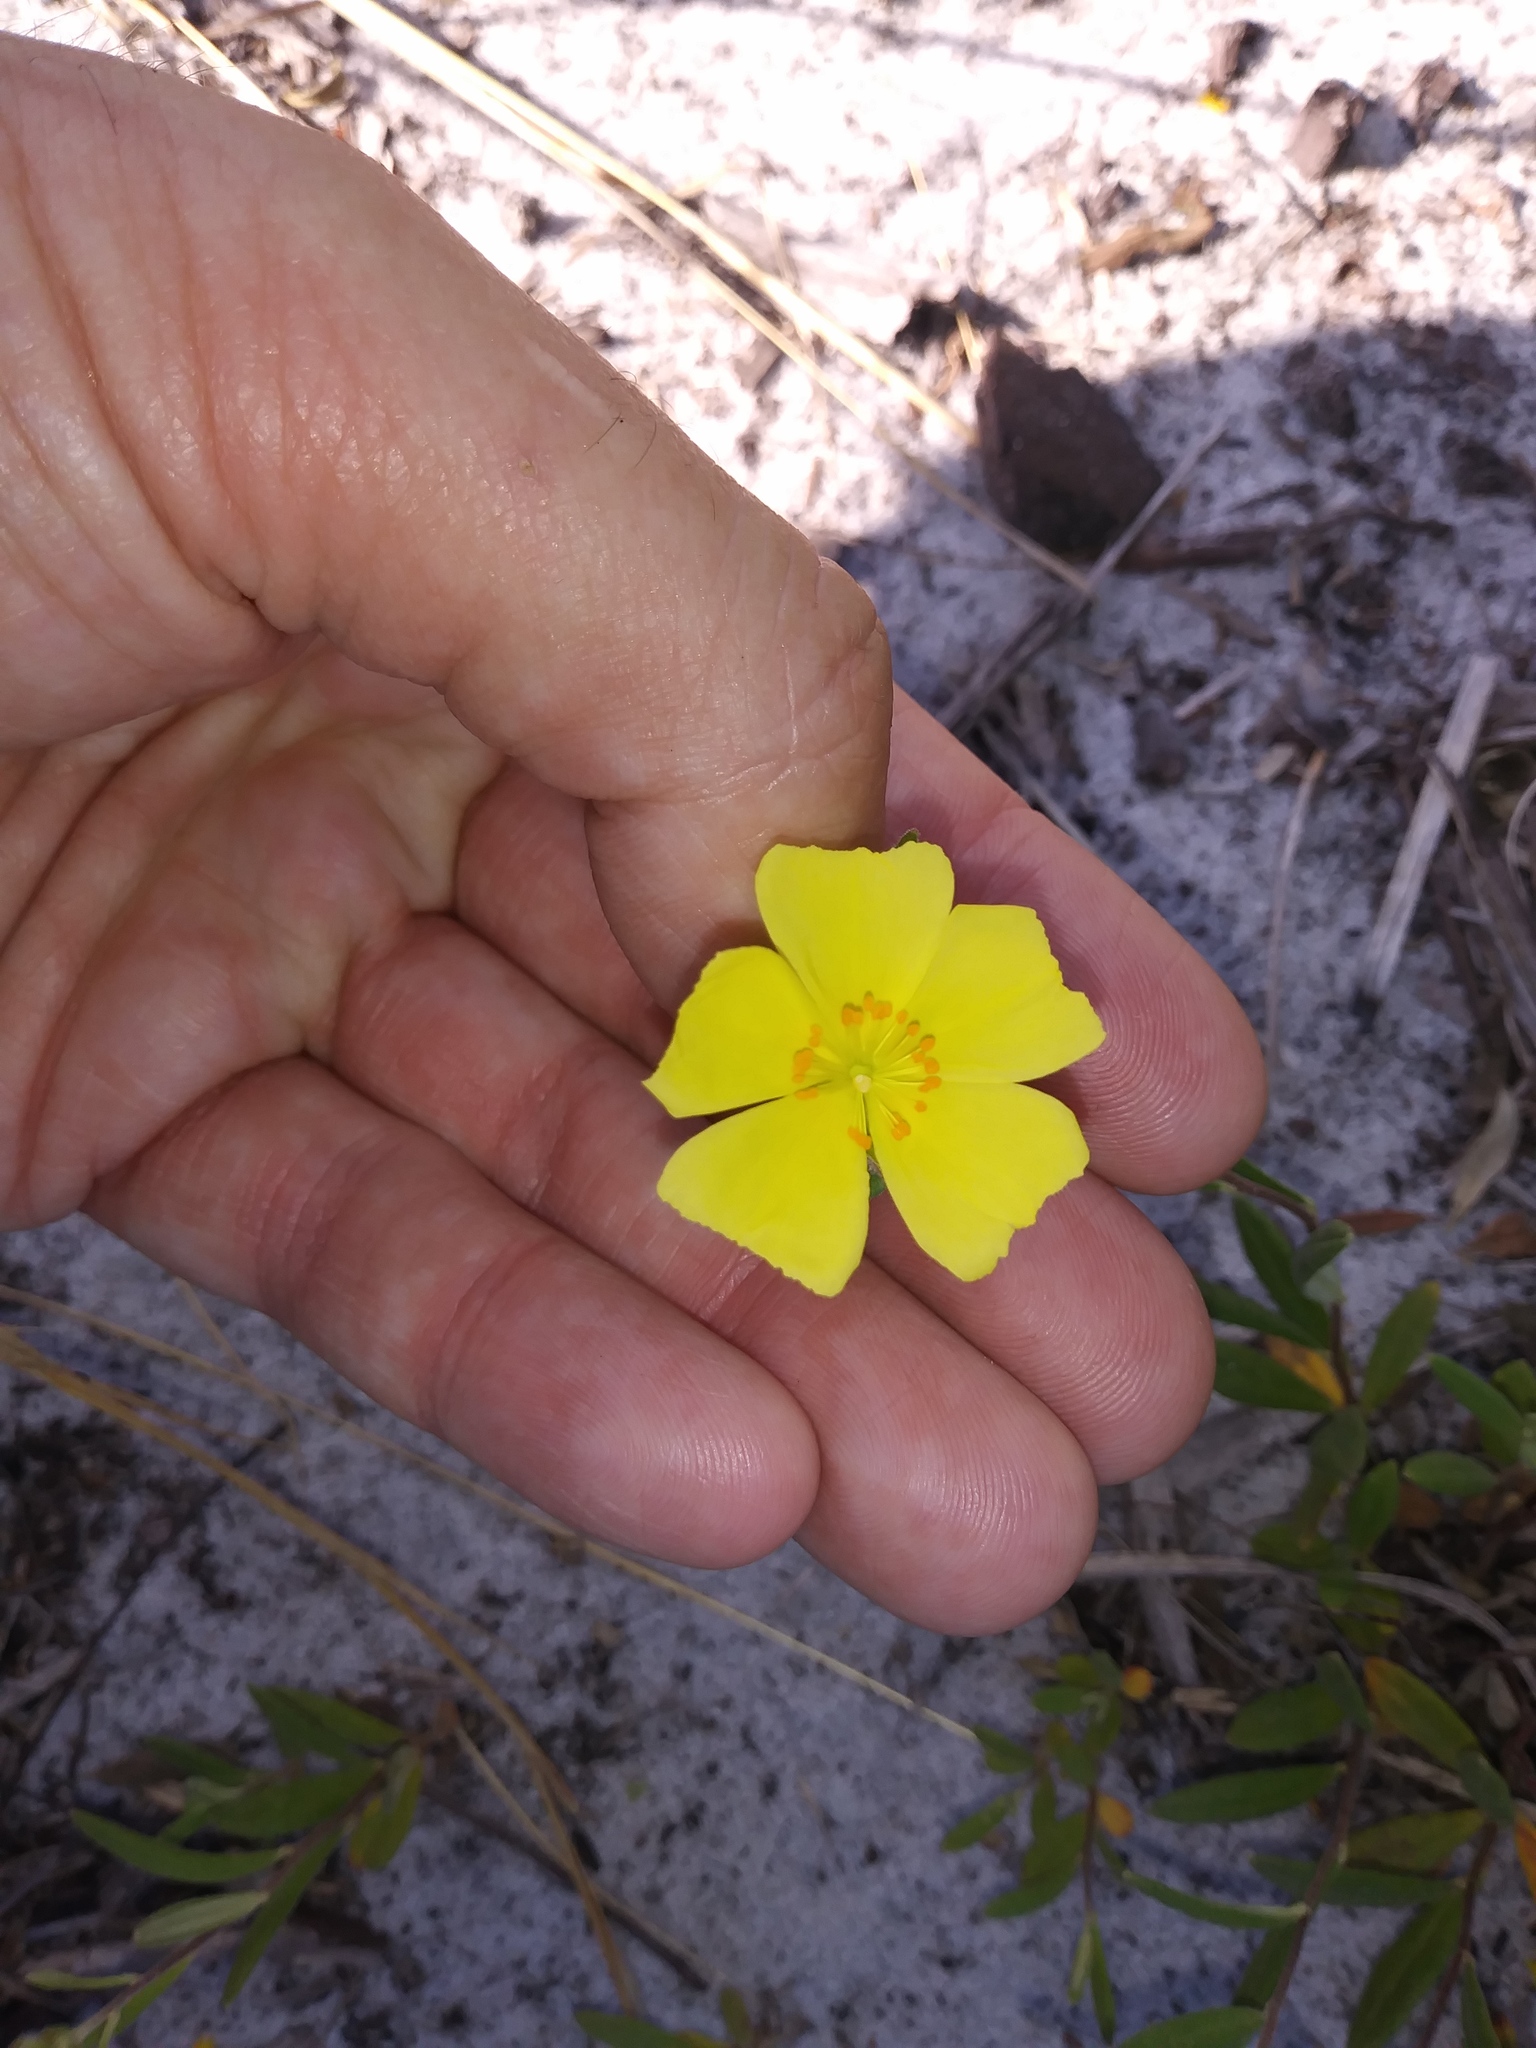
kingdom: Plantae
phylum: Tracheophyta
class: Magnoliopsida
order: Malvales
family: Cistaceae
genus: Crocanthemum
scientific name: Crocanthemum corymbosum
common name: Pinebarren sun-rose
